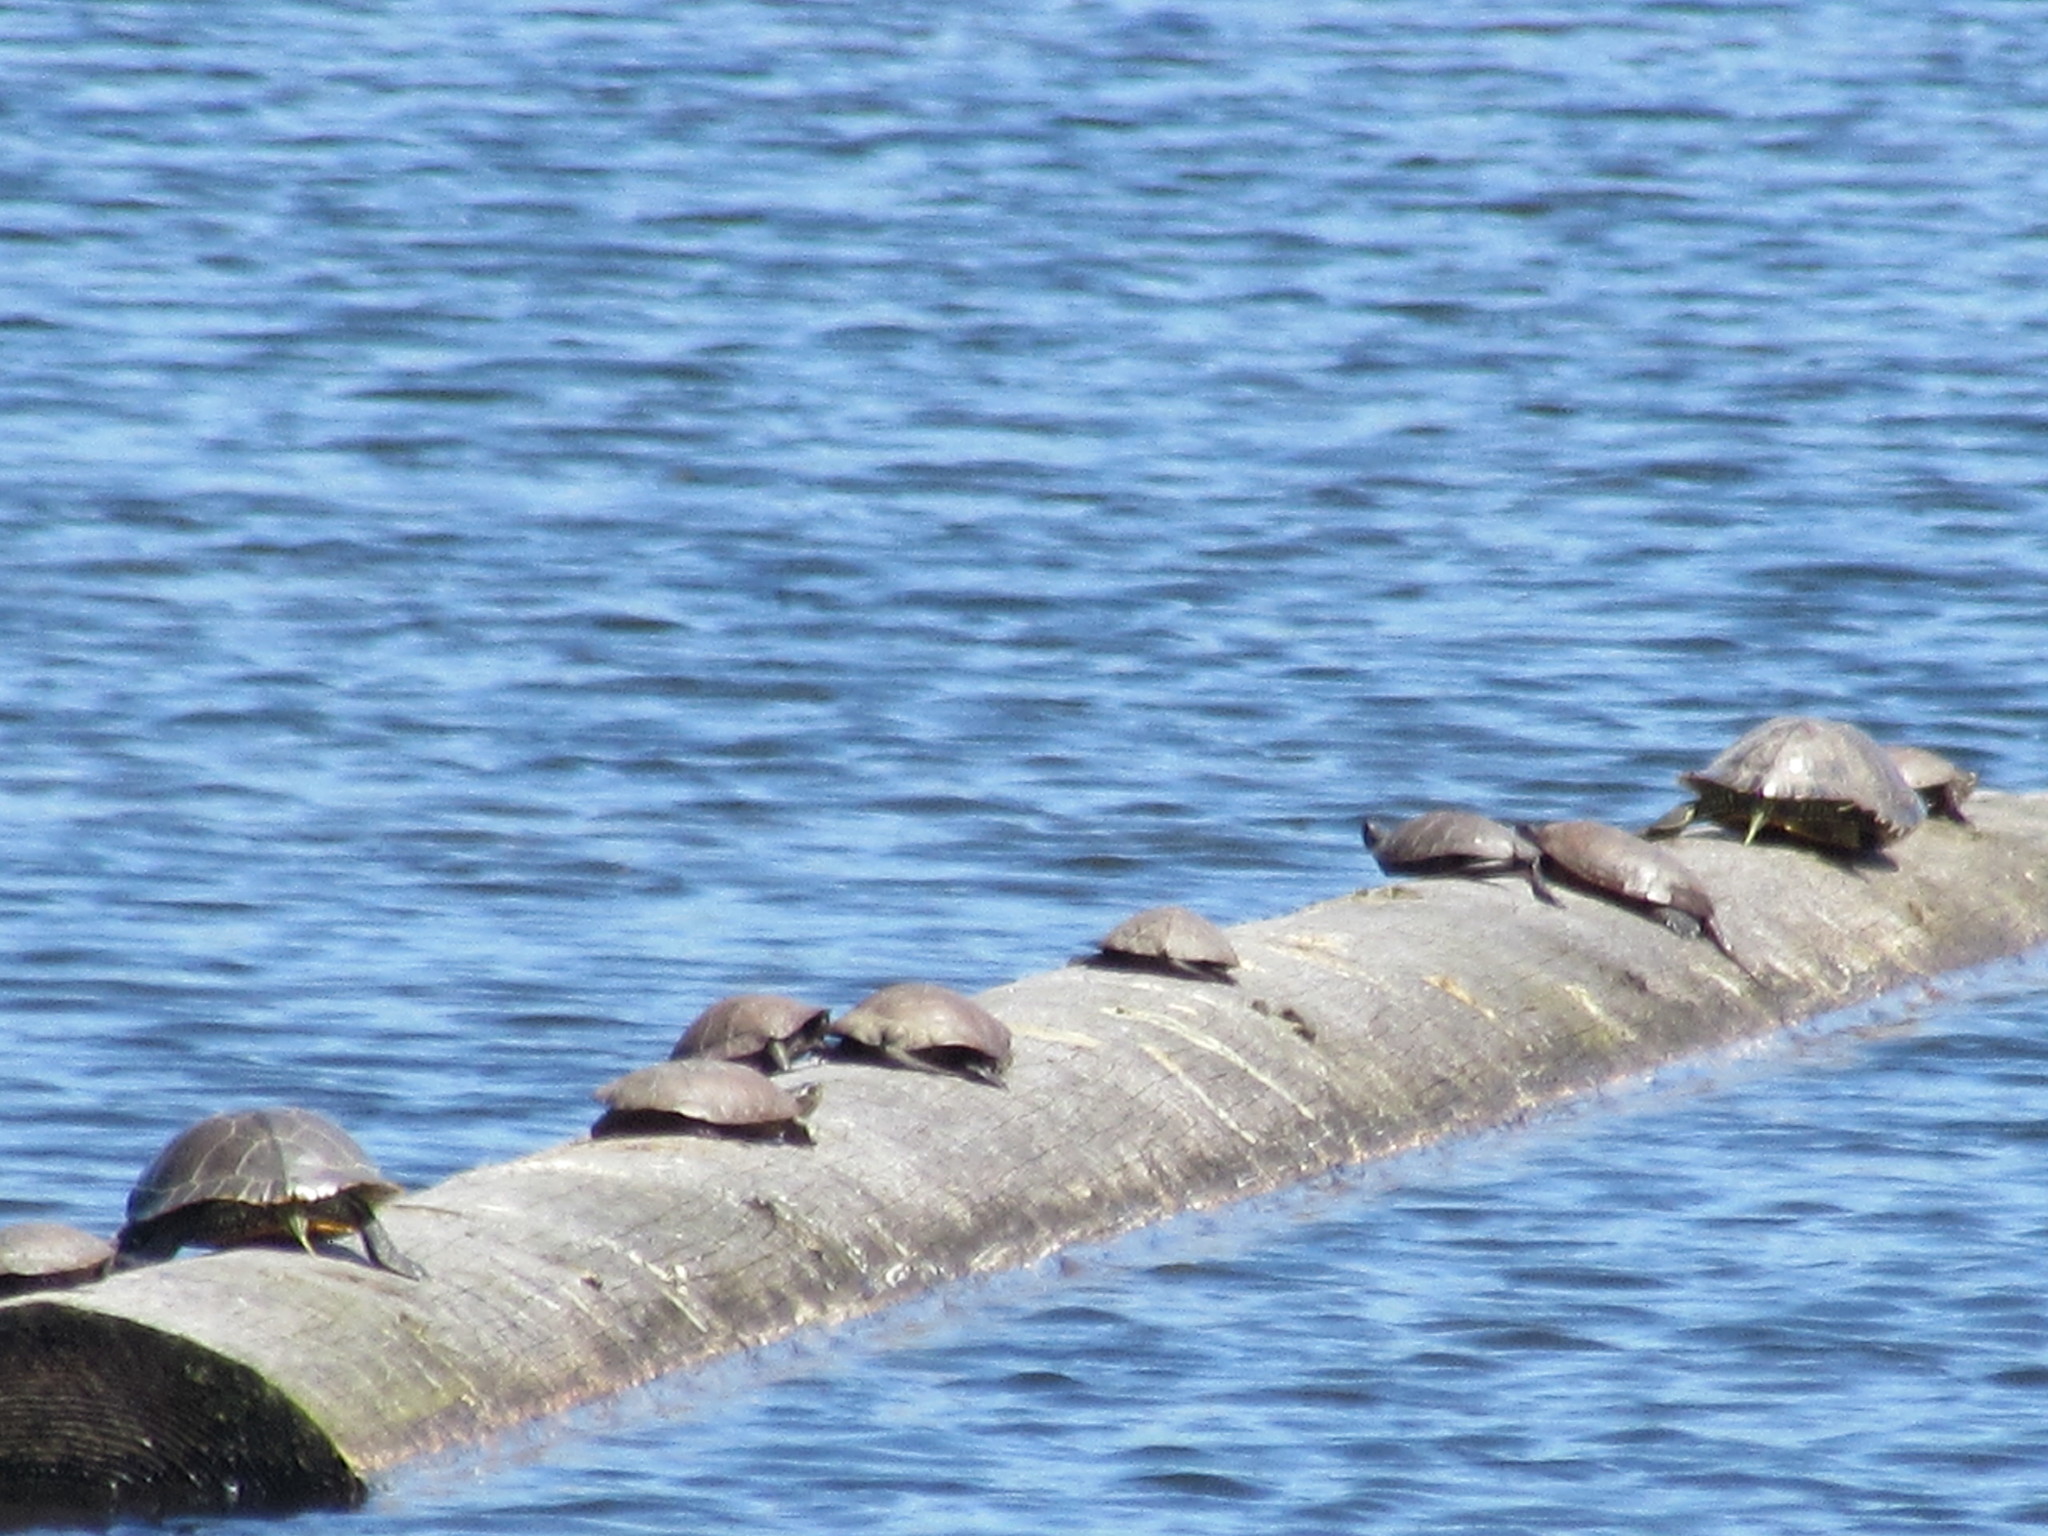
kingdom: Animalia
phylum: Chordata
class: Testudines
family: Emydidae
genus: Actinemys
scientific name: Actinemys marmorata
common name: Western pond turtle
